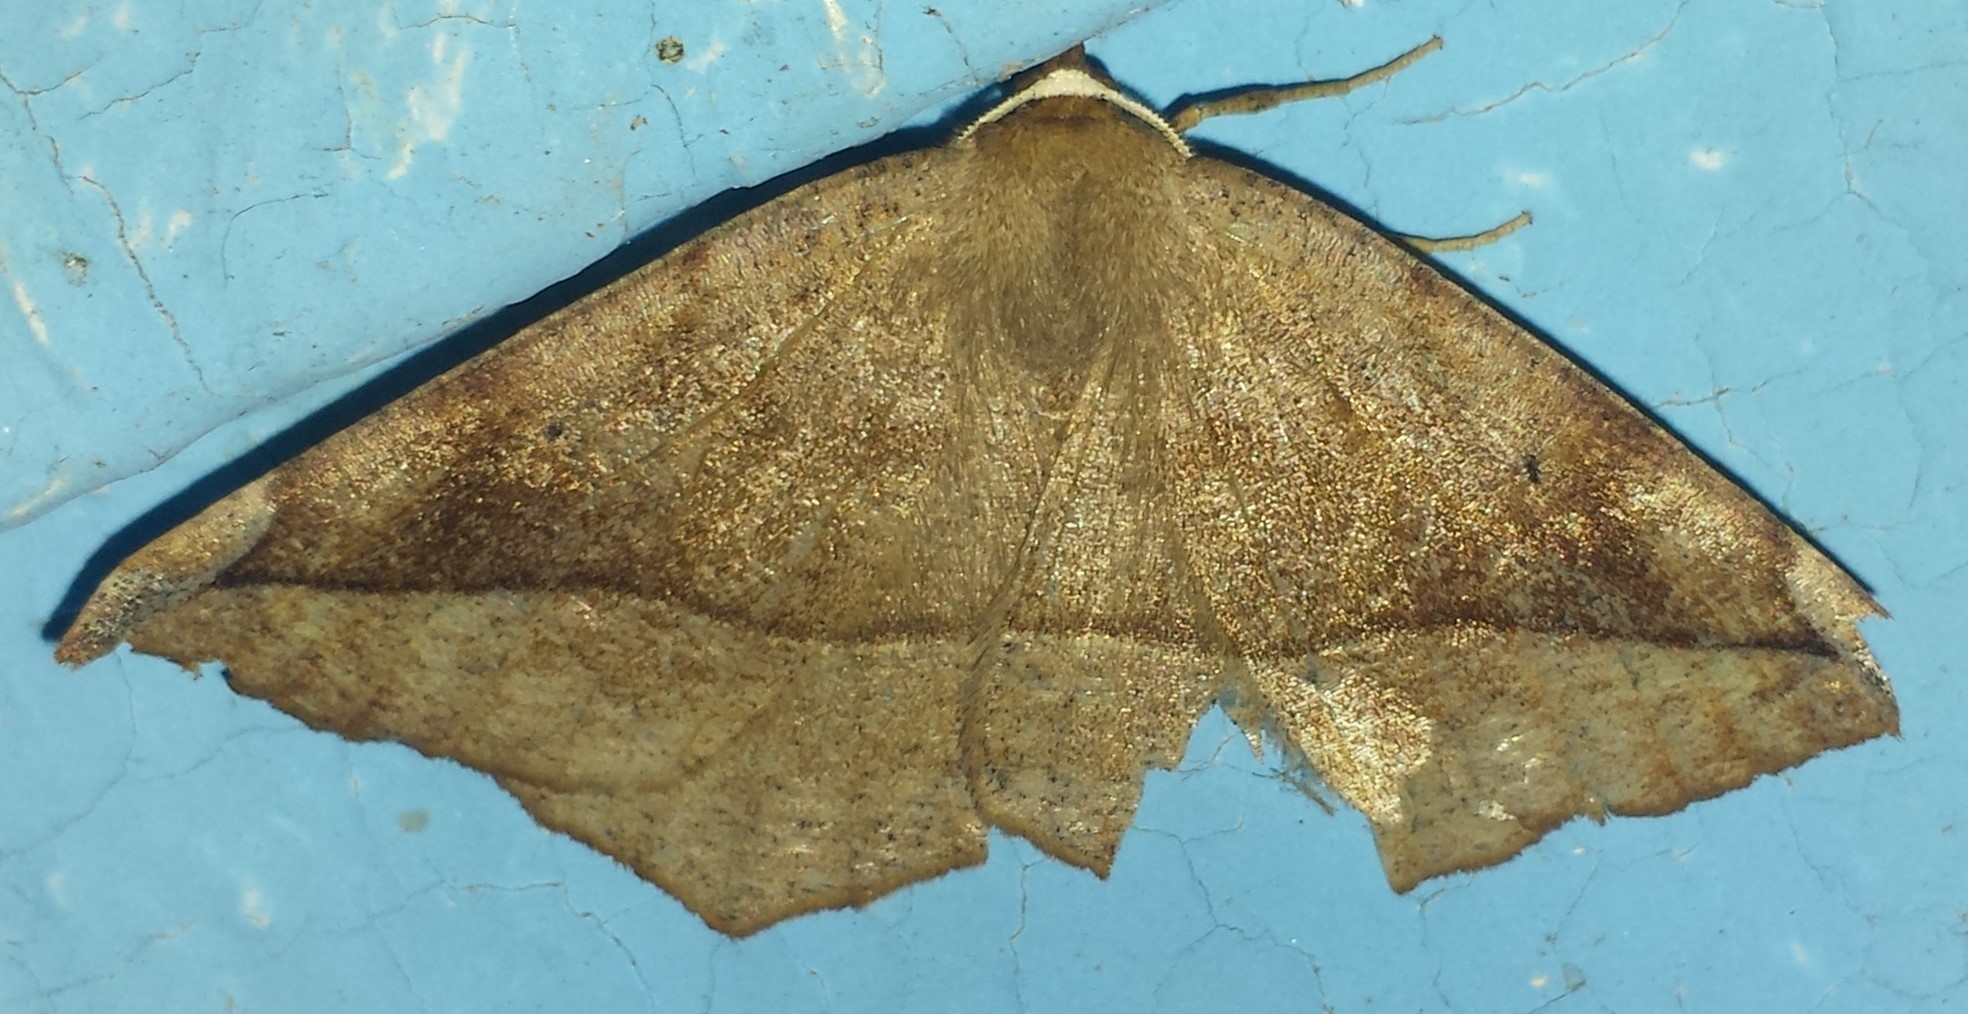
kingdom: Animalia
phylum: Arthropoda
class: Insecta
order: Lepidoptera
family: Geometridae
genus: Eutrapela
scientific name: Eutrapela clemataria
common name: Curved-toothed geometer
